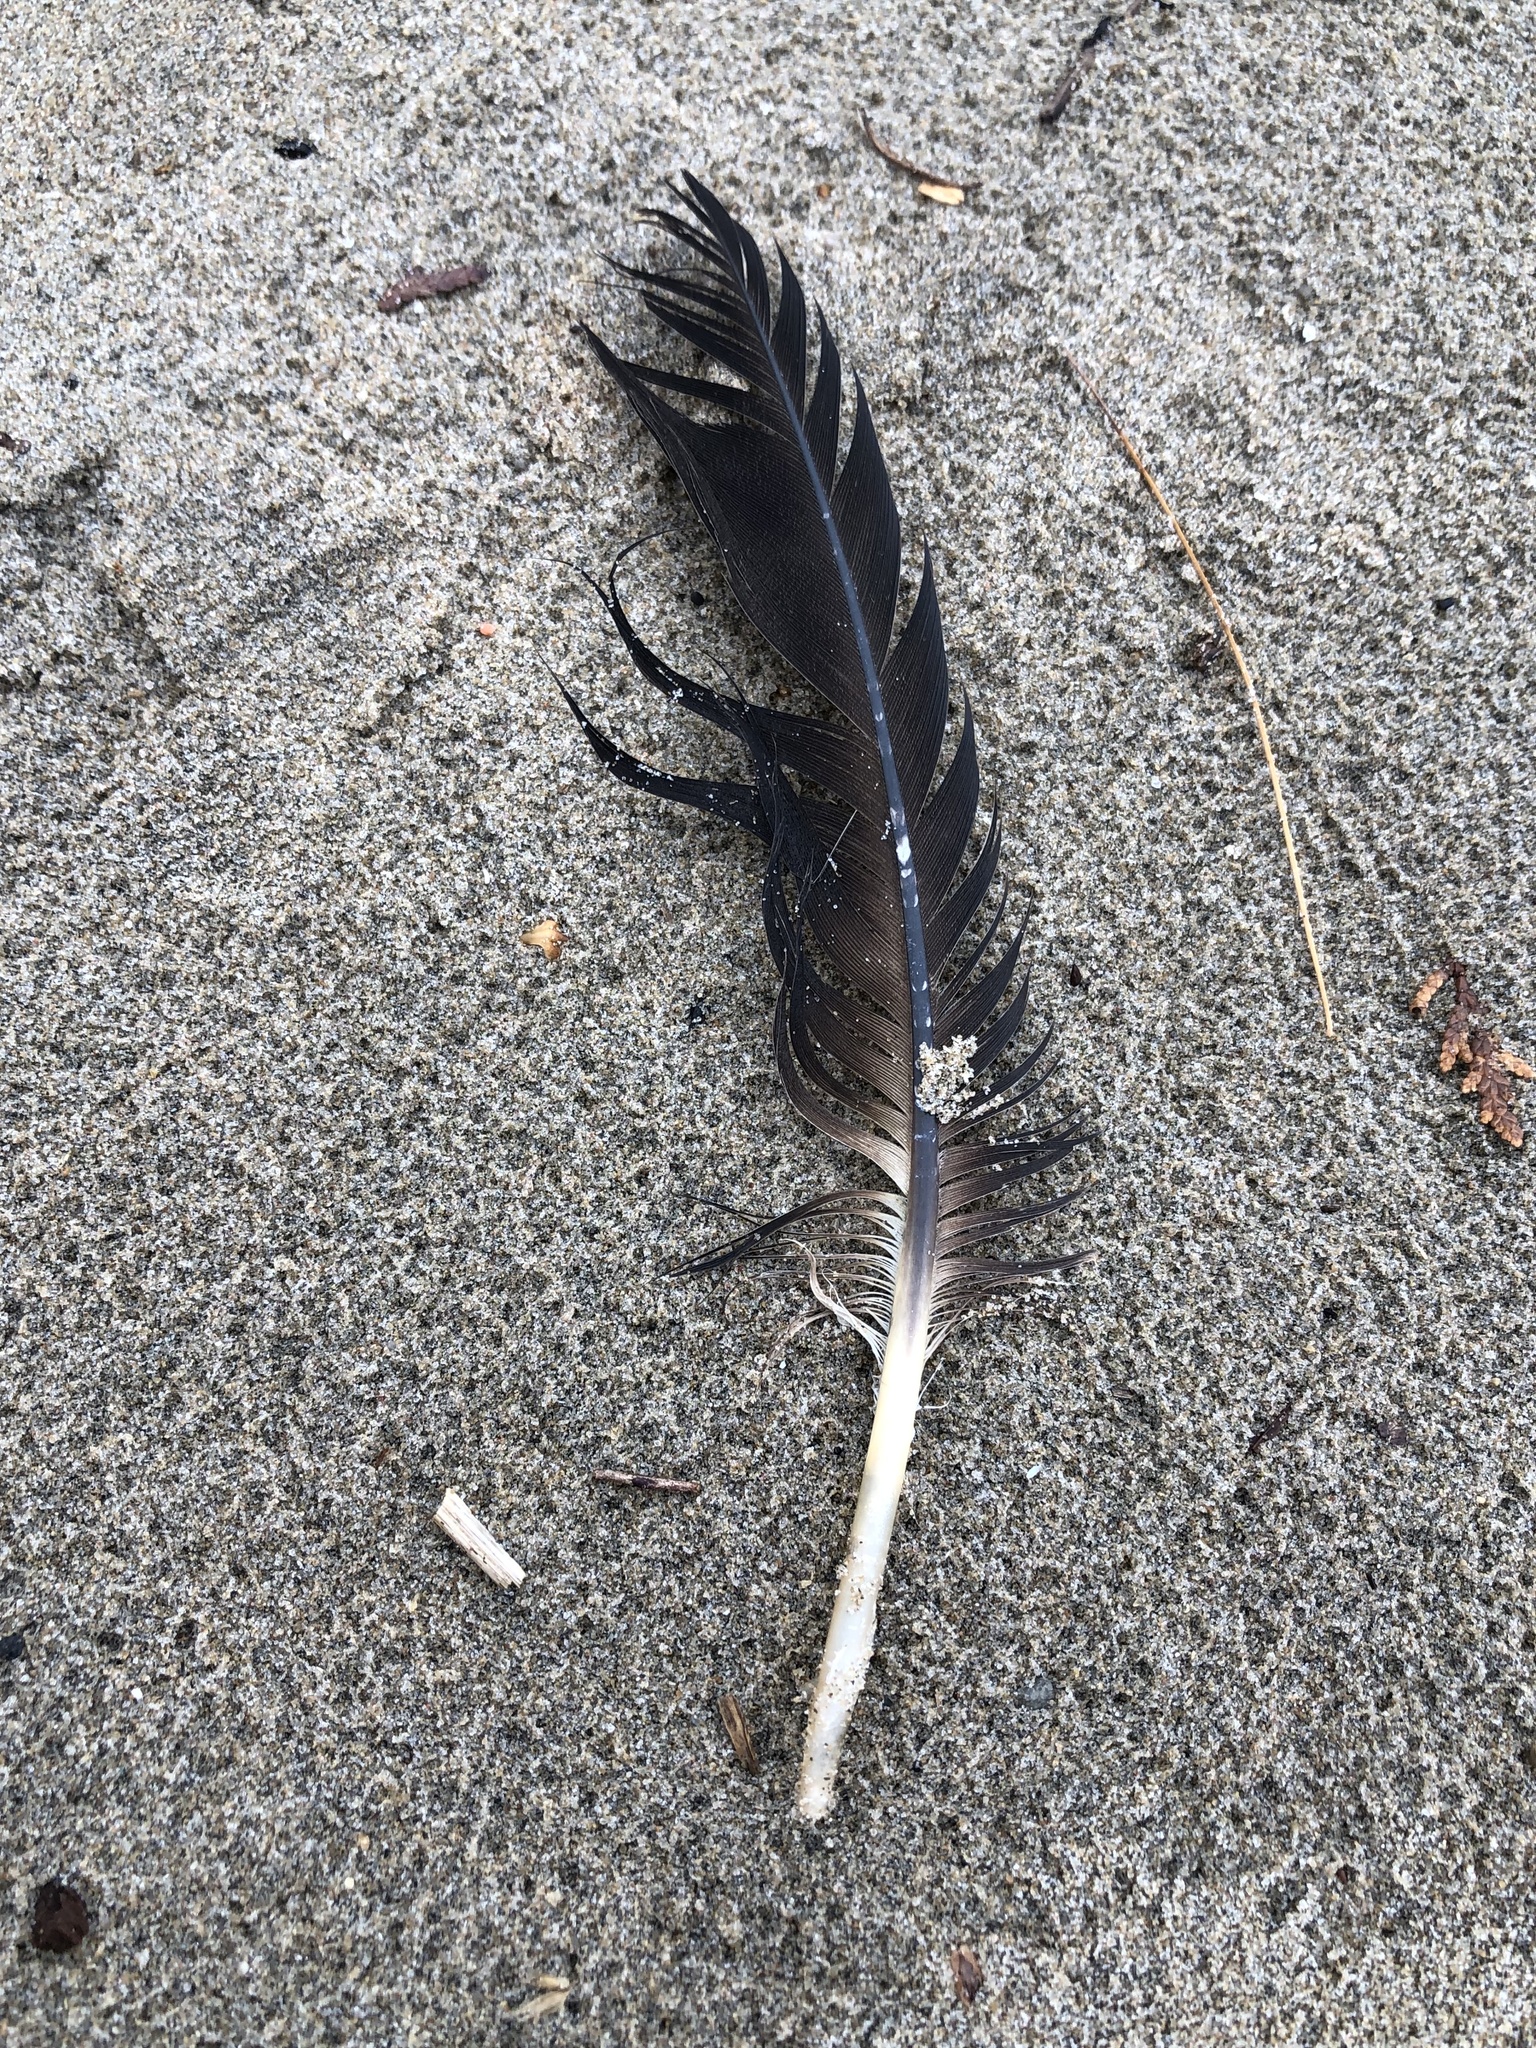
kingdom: Animalia
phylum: Chordata
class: Aves
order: Anseriformes
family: Anatidae
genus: Branta
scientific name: Branta canadensis
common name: Canada goose
